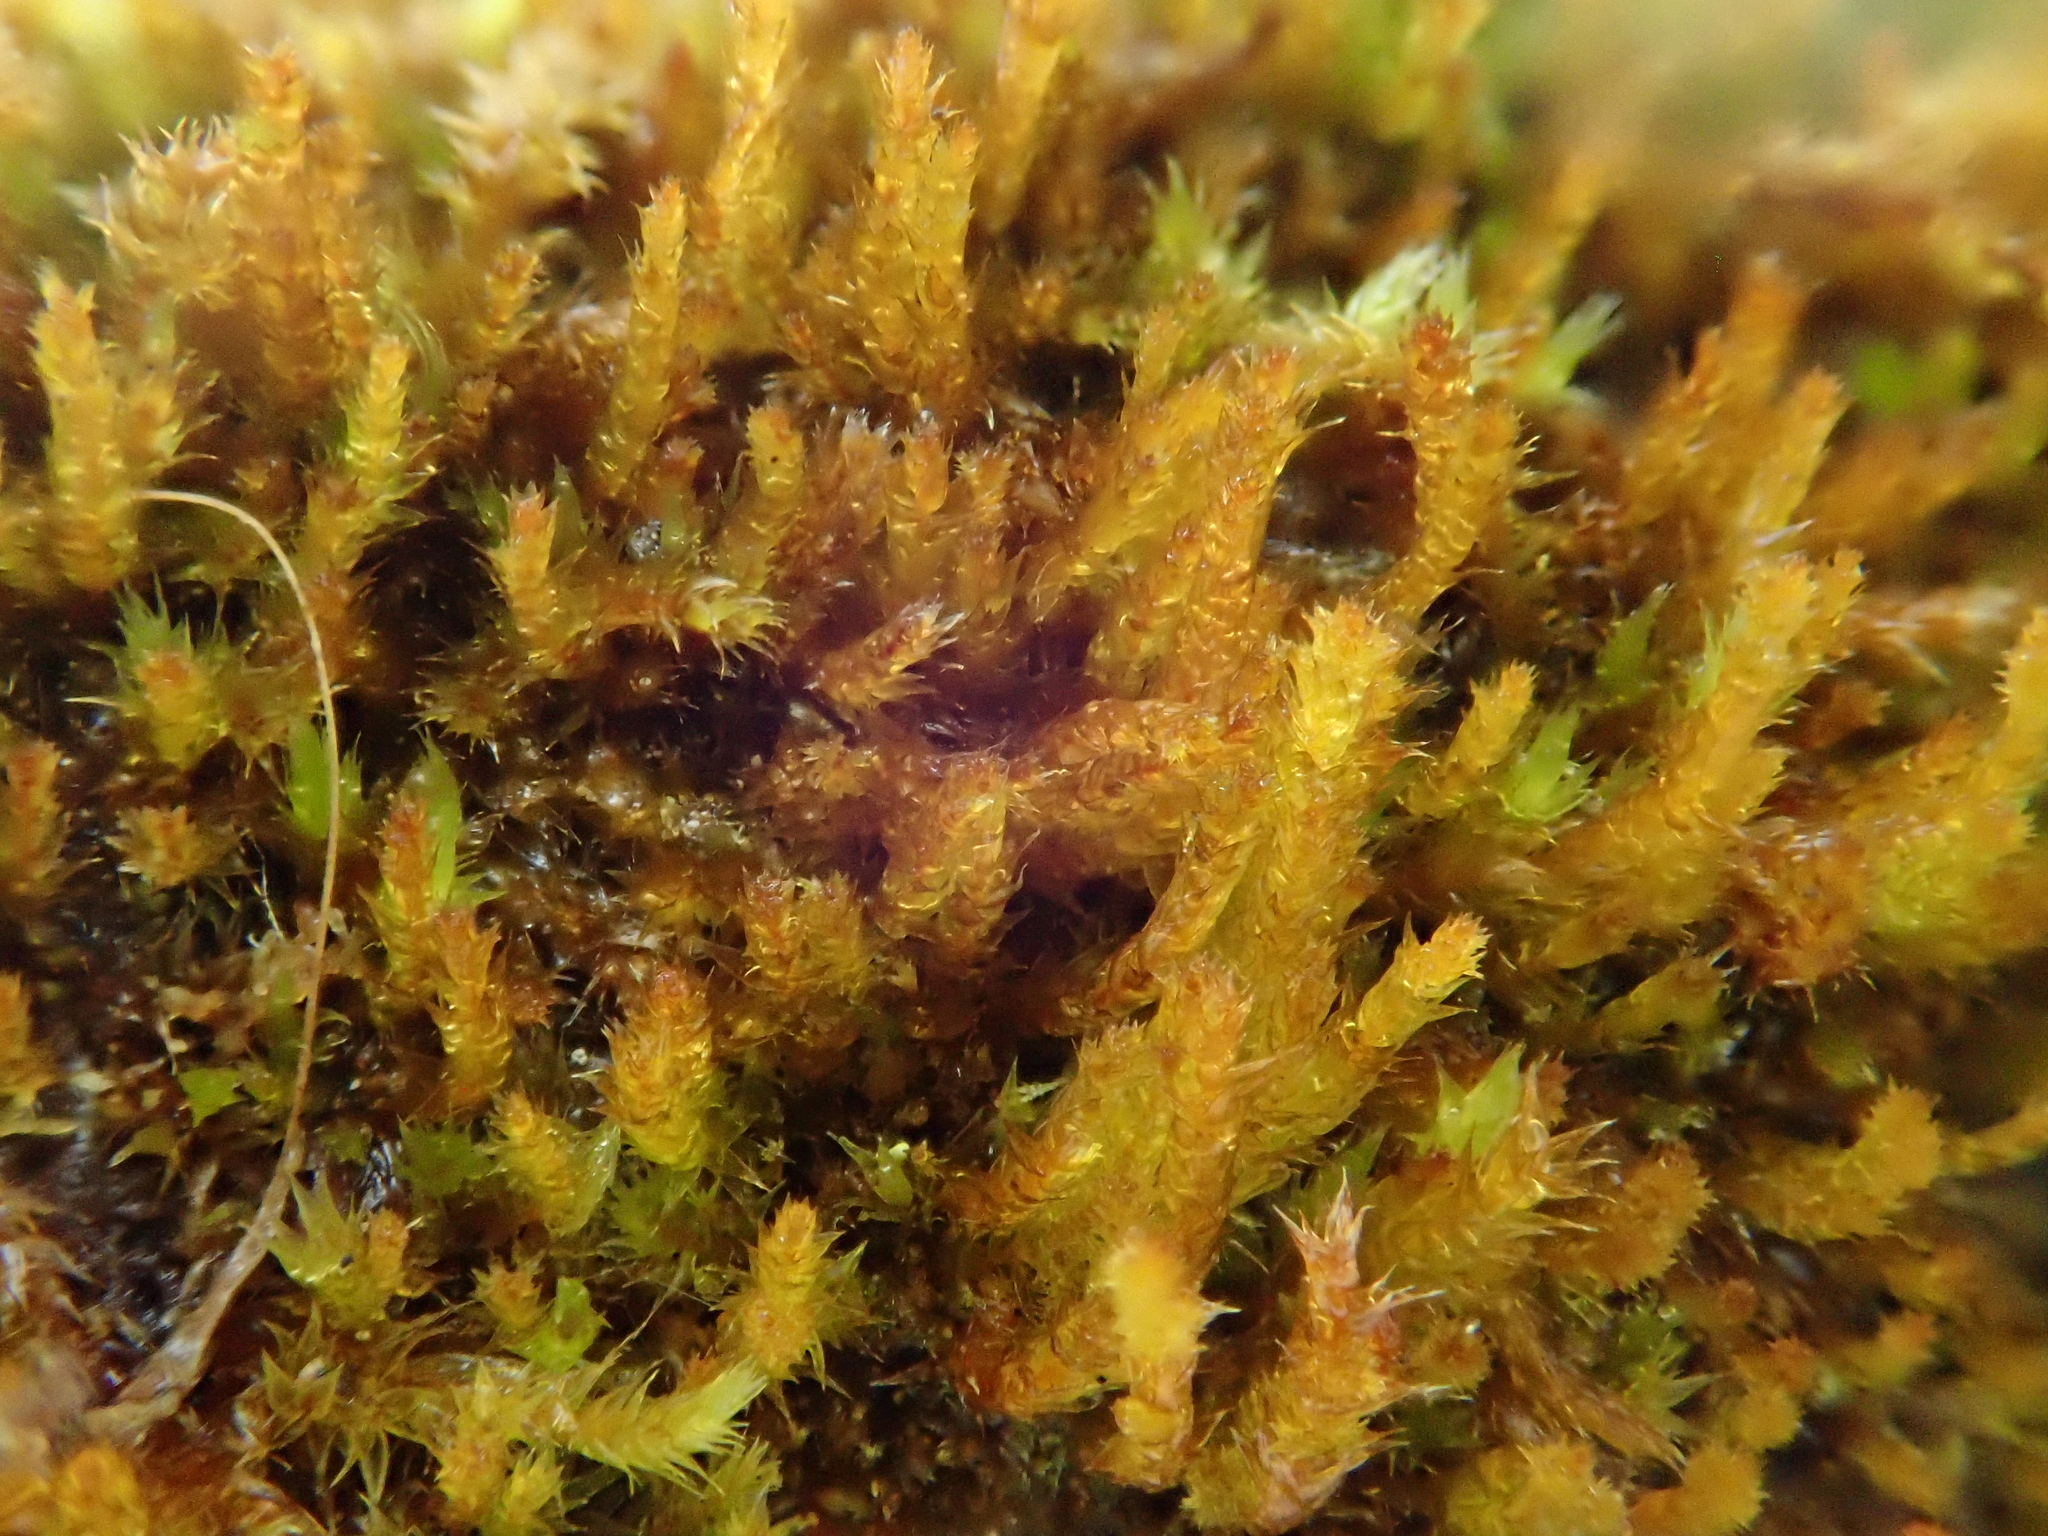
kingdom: Plantae
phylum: Bryophyta
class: Bryopsida
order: Hypnales
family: Pylaisiadelphaceae
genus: Platygyrium
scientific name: Platygyrium repens
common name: Flat-brocade moss
